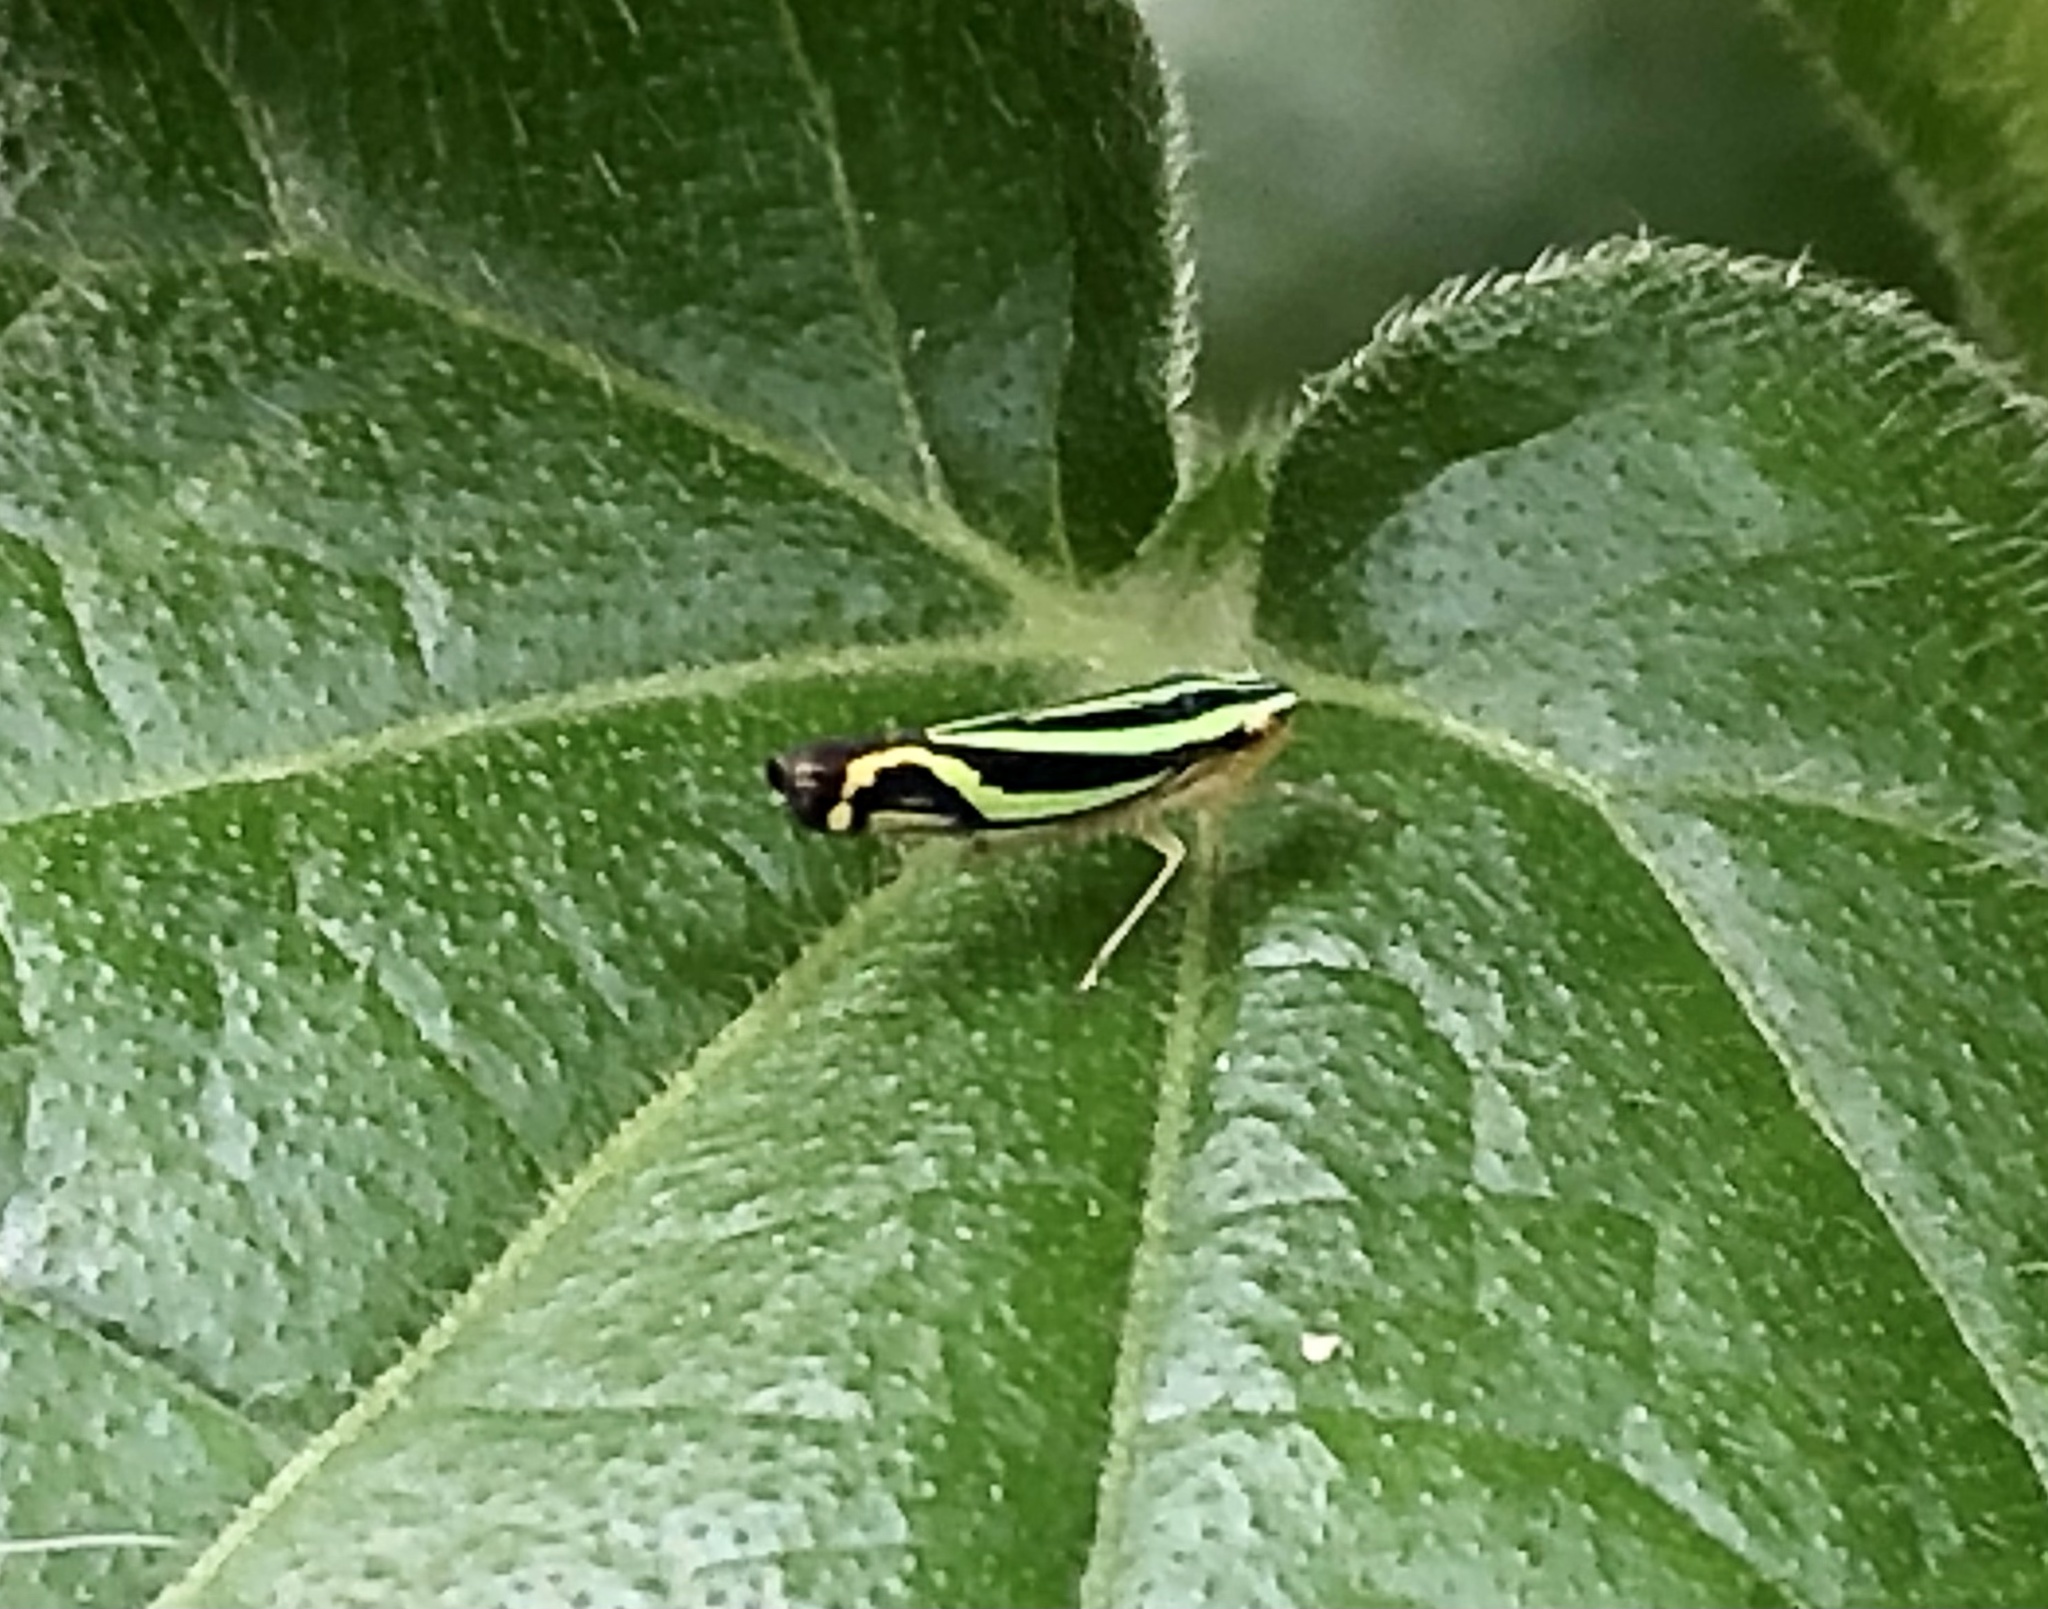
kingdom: Animalia
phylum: Arthropoda
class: Insecta
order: Hemiptera
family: Cicadellidae
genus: Sibovia
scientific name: Sibovia sagata
